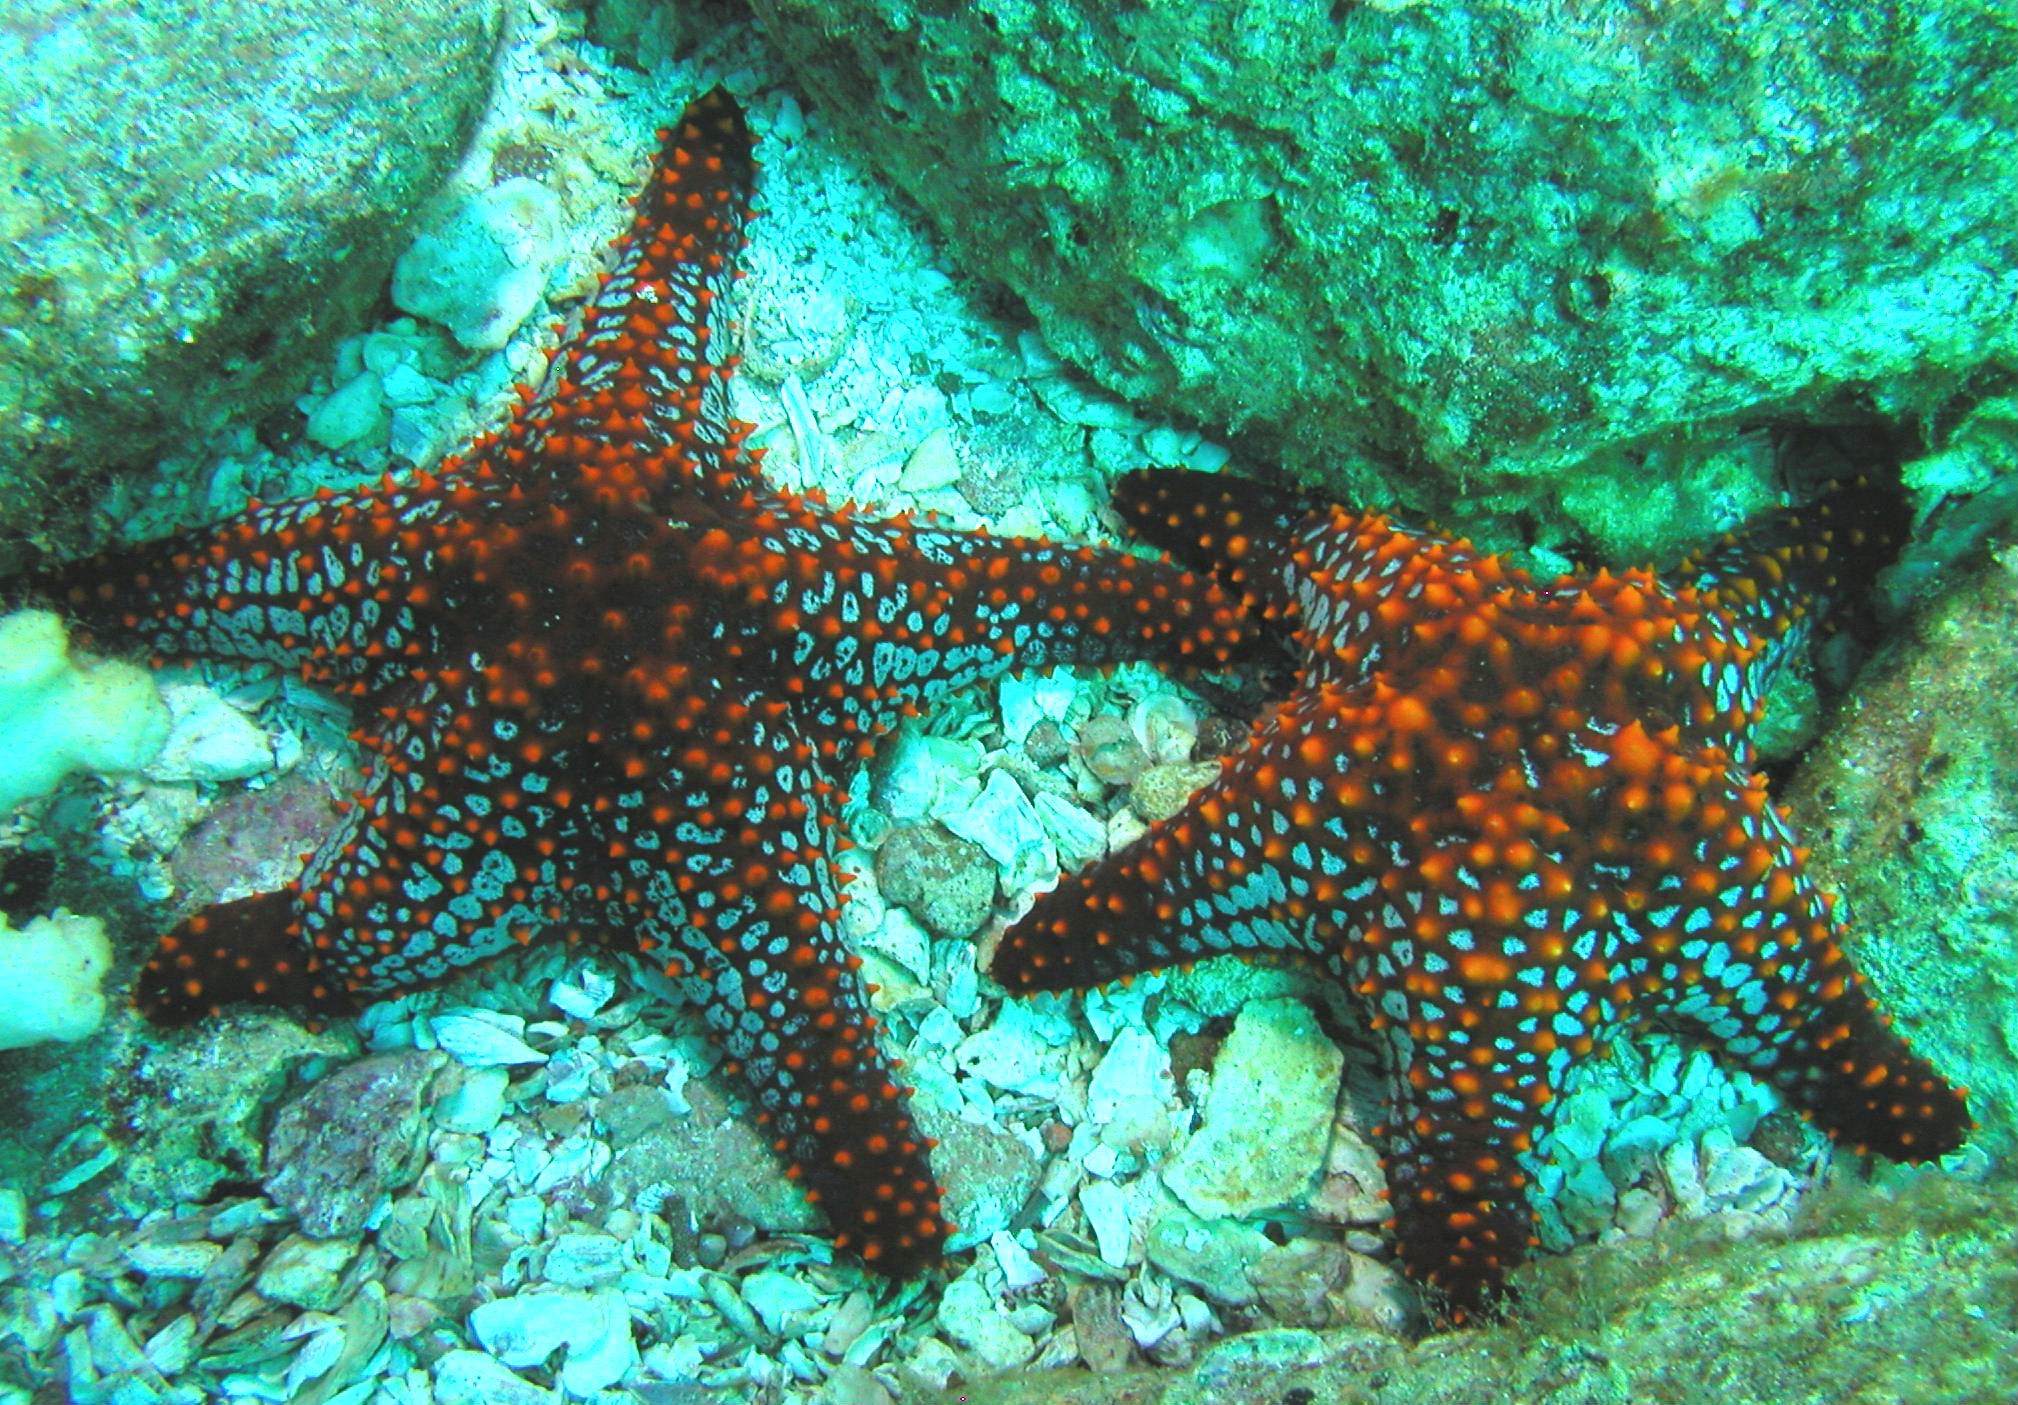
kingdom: Animalia
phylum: Echinodermata
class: Asteroidea
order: Valvatida
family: Oreasteridae
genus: Pentaceraster
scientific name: Pentaceraster cumingi
